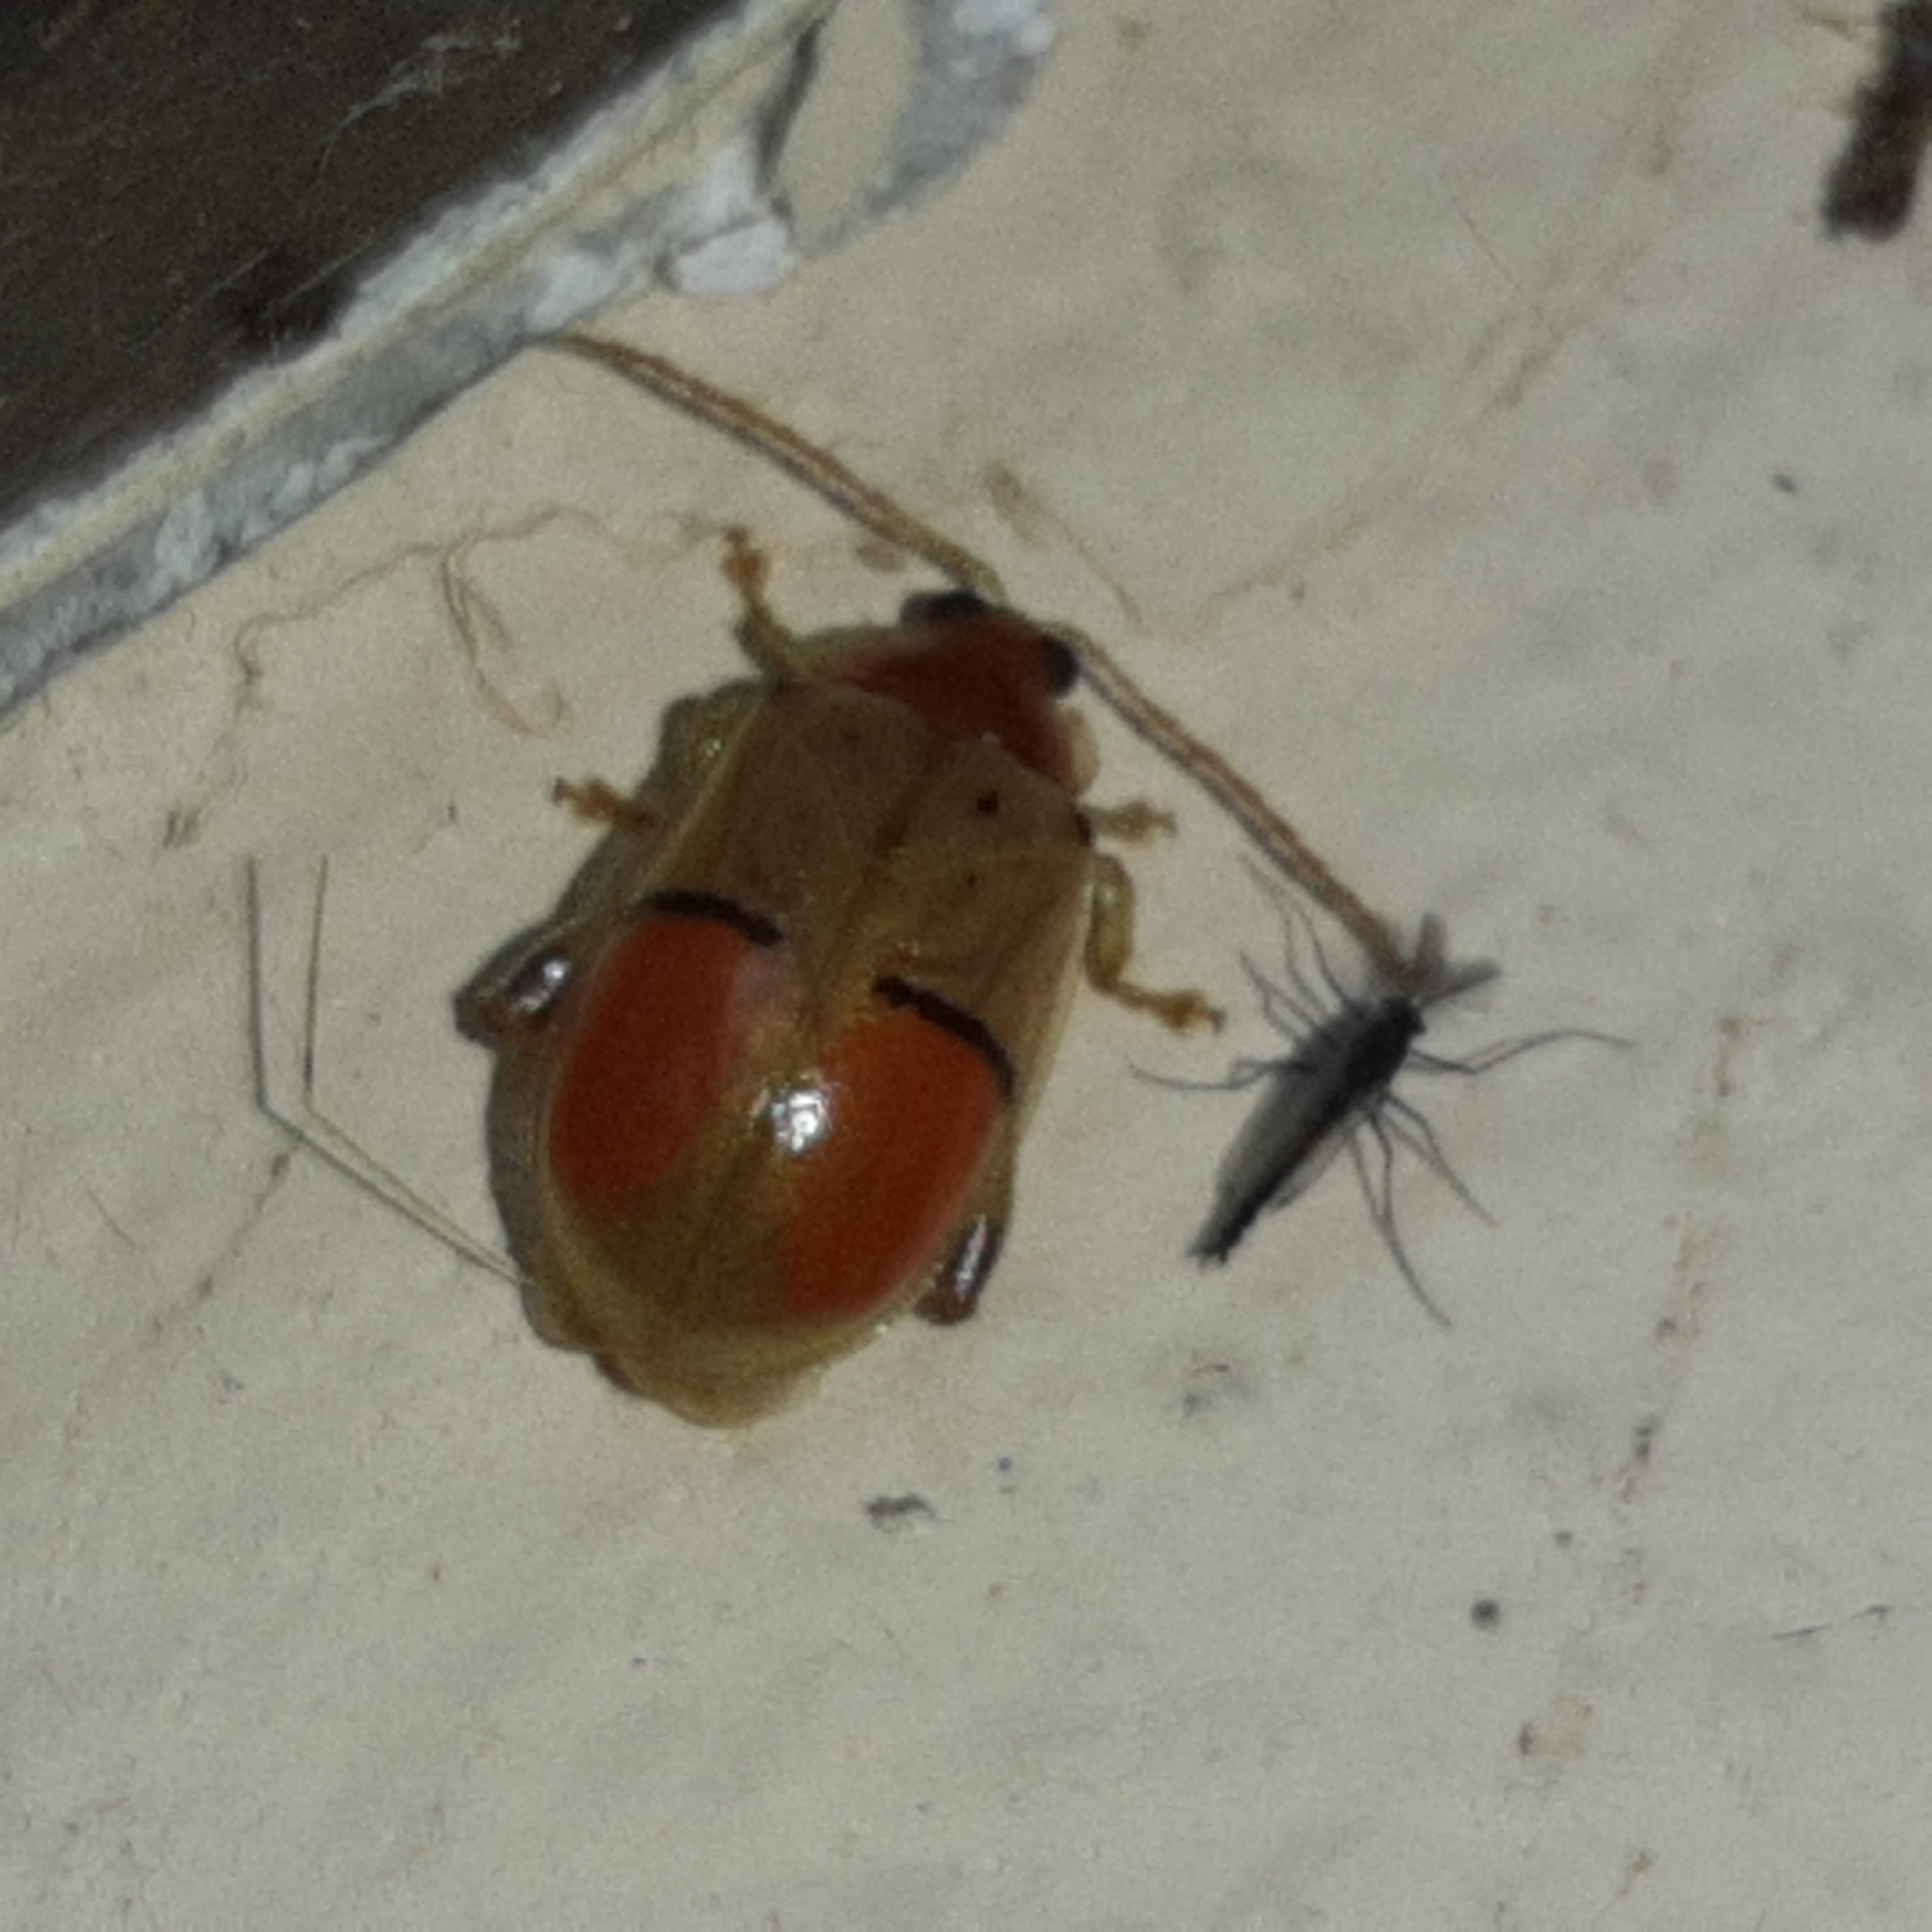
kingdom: Animalia
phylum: Arthropoda
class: Insecta
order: Coleoptera
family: Chrysomelidae
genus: Walterianella
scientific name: Walterianella humeralis
